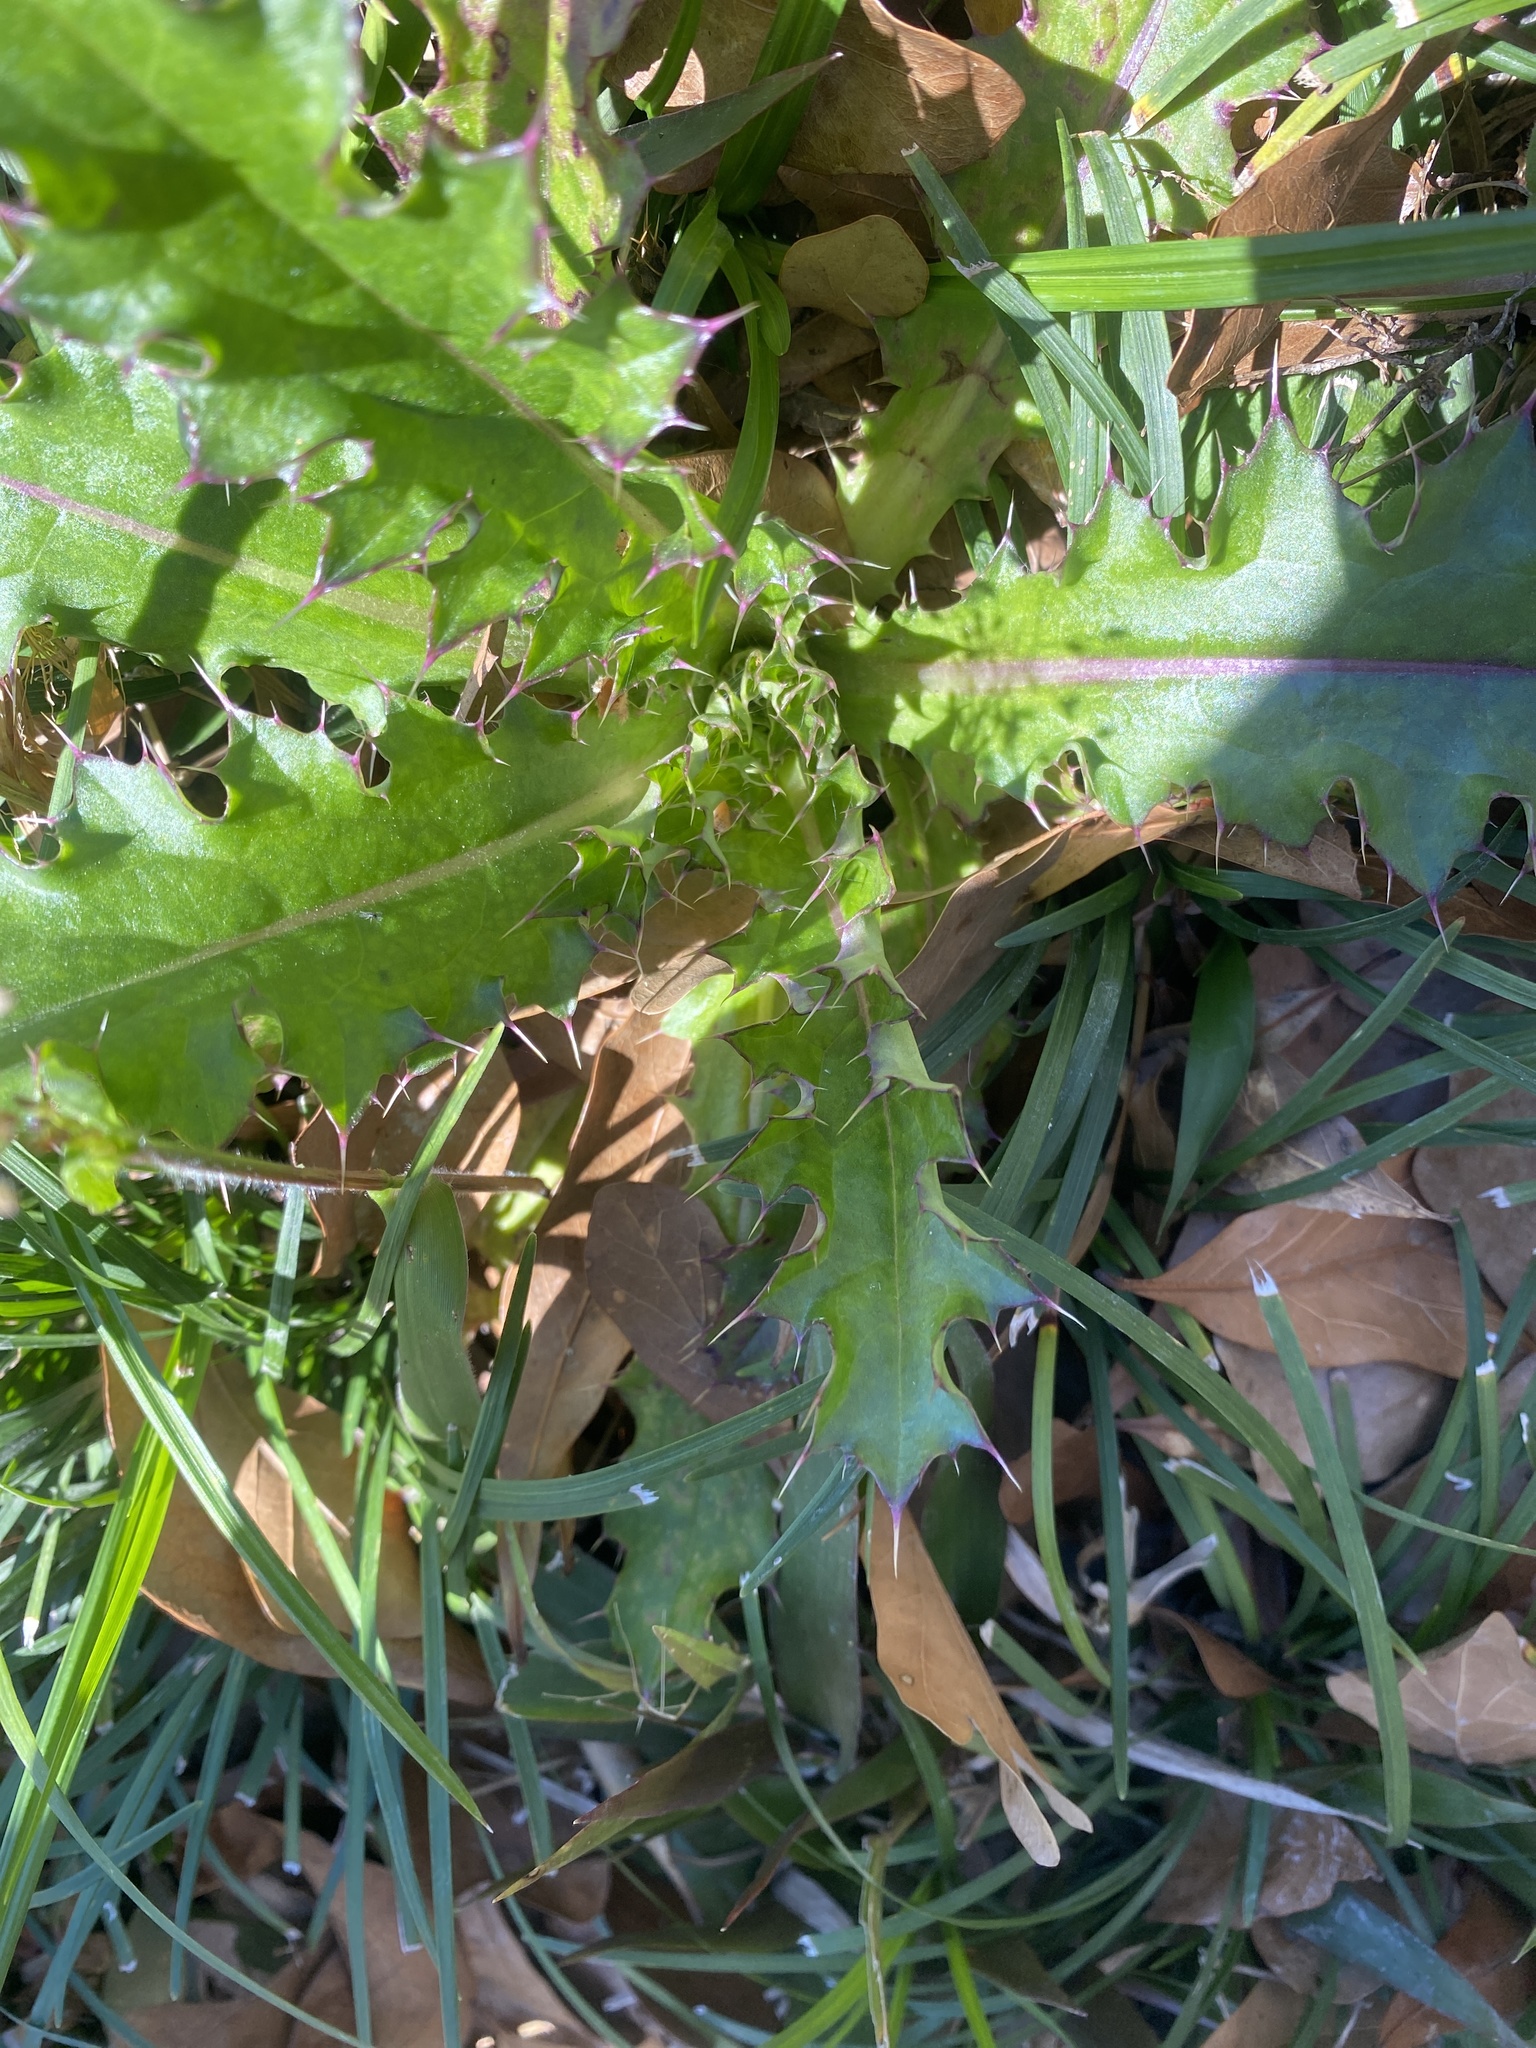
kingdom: Plantae
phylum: Tracheophyta
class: Magnoliopsida
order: Asterales
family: Asteraceae
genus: Cirsium
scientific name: Cirsium horridulum
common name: Bristly thistle
